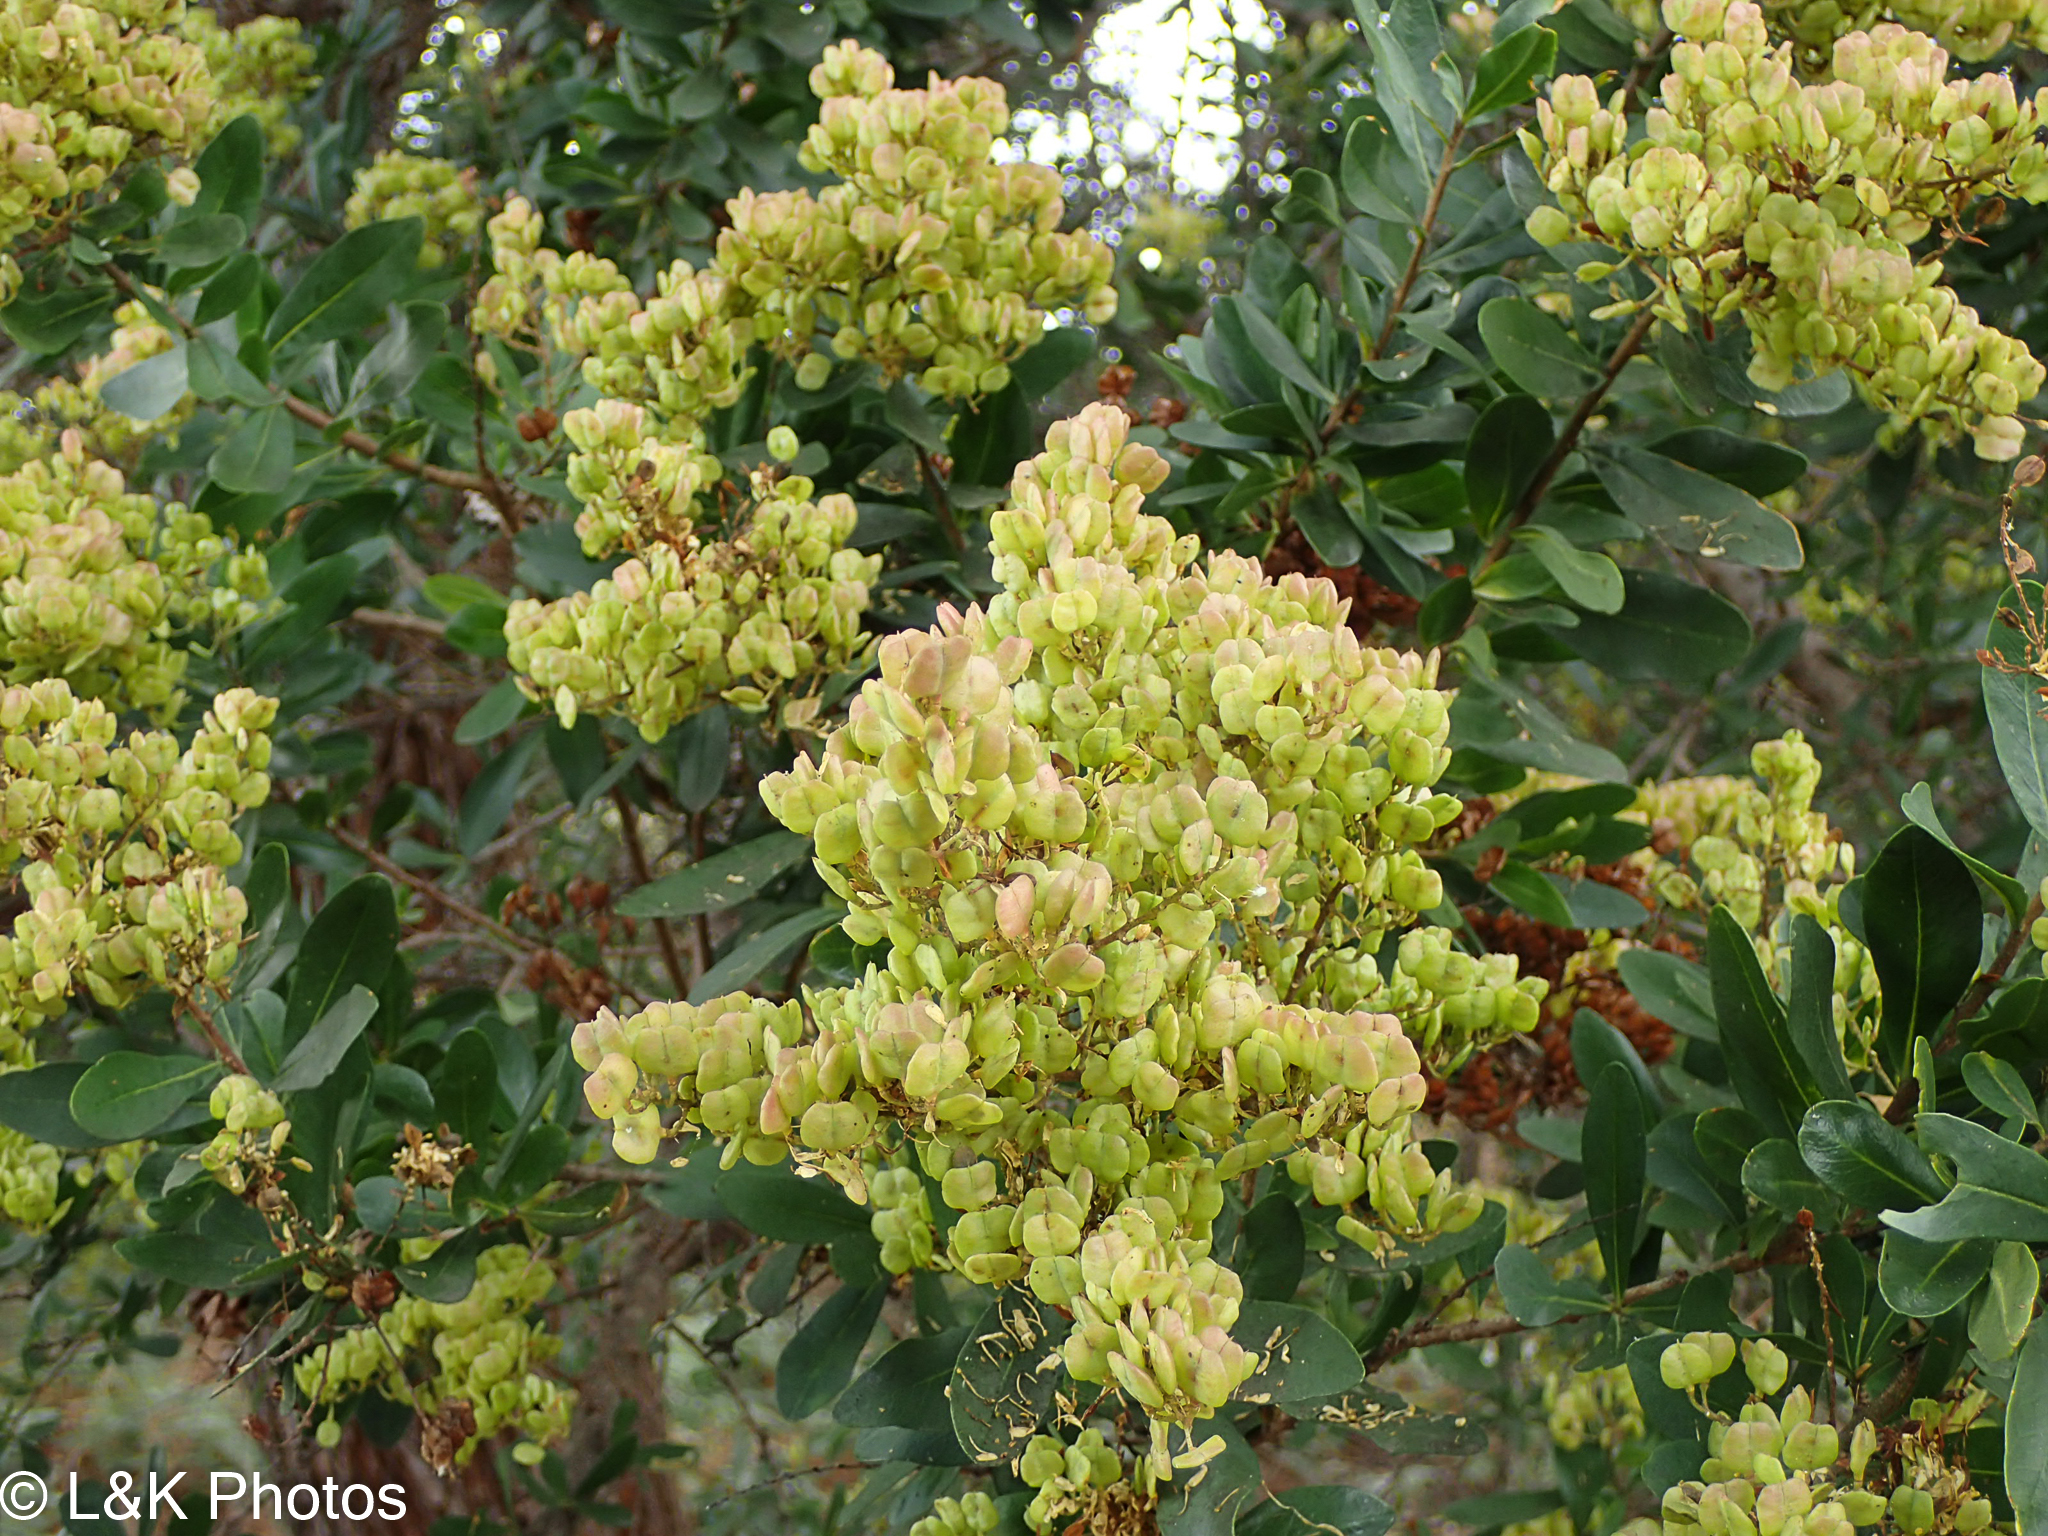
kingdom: Plantae
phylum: Tracheophyta
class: Magnoliopsida
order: Apiales
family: Pittosporaceae
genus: Bursaria
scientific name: Bursaria spinosa
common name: Australian blackthorn
